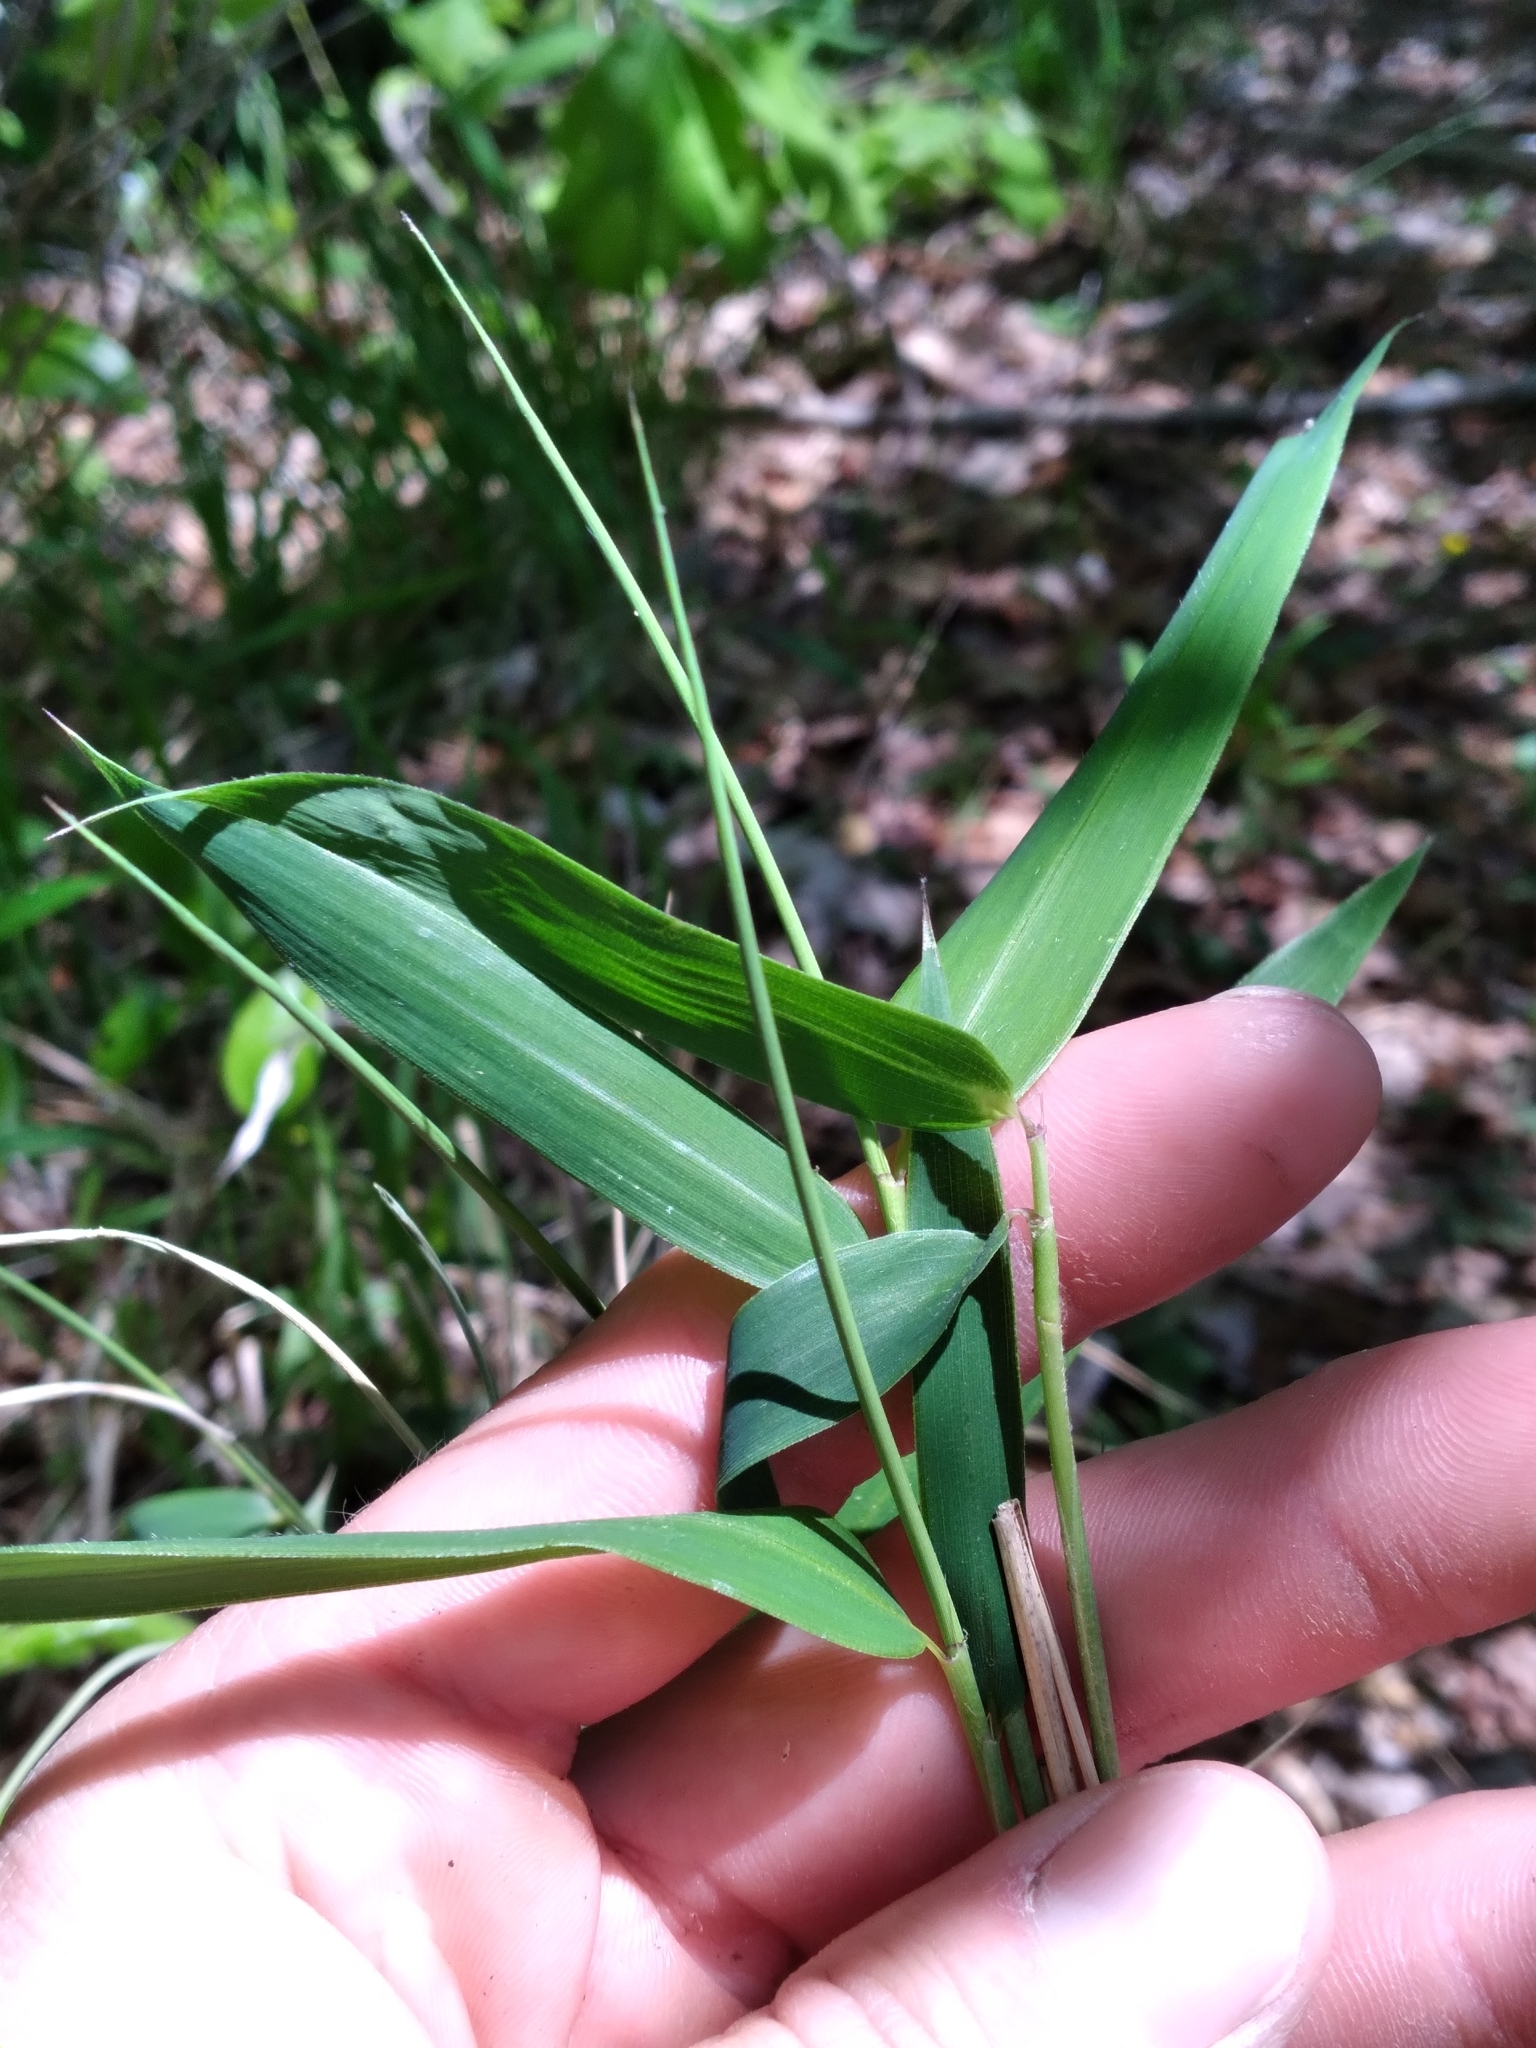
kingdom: Plantae
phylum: Tracheophyta
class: Liliopsida
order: Poales
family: Poaceae
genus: Arundinaria
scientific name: Arundinaria appalachiana
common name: Hill cane
